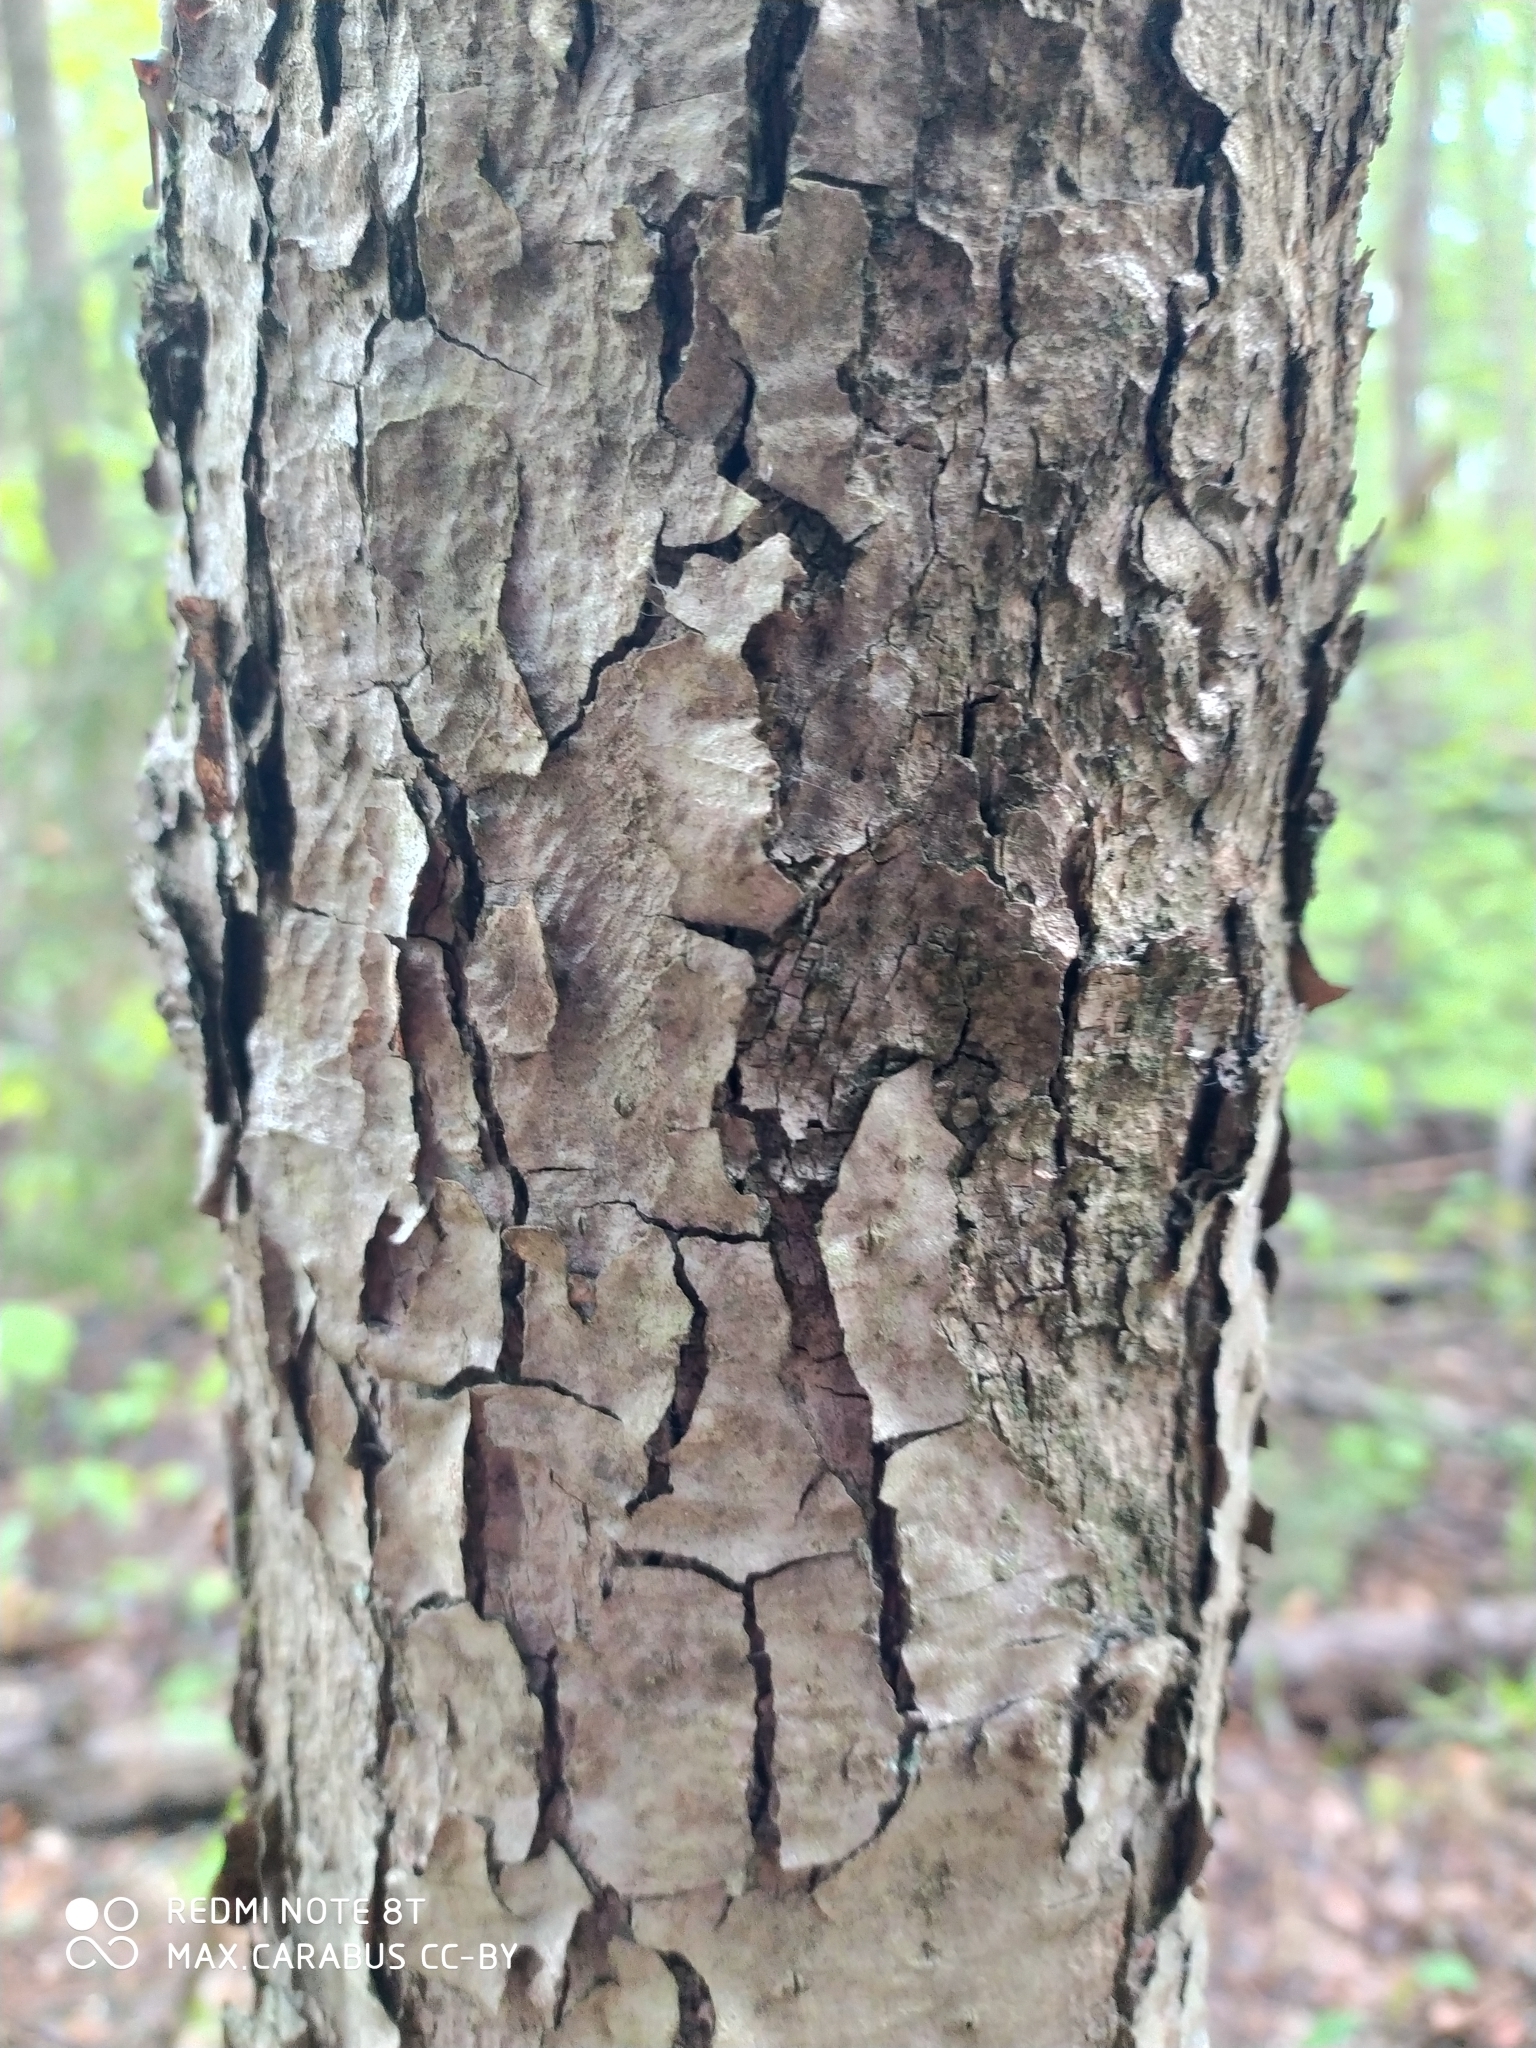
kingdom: Plantae
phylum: Tracheophyta
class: Magnoliopsida
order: Malvales
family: Malvaceae
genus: Tilia
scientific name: Tilia cordata
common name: Small-leaved lime
